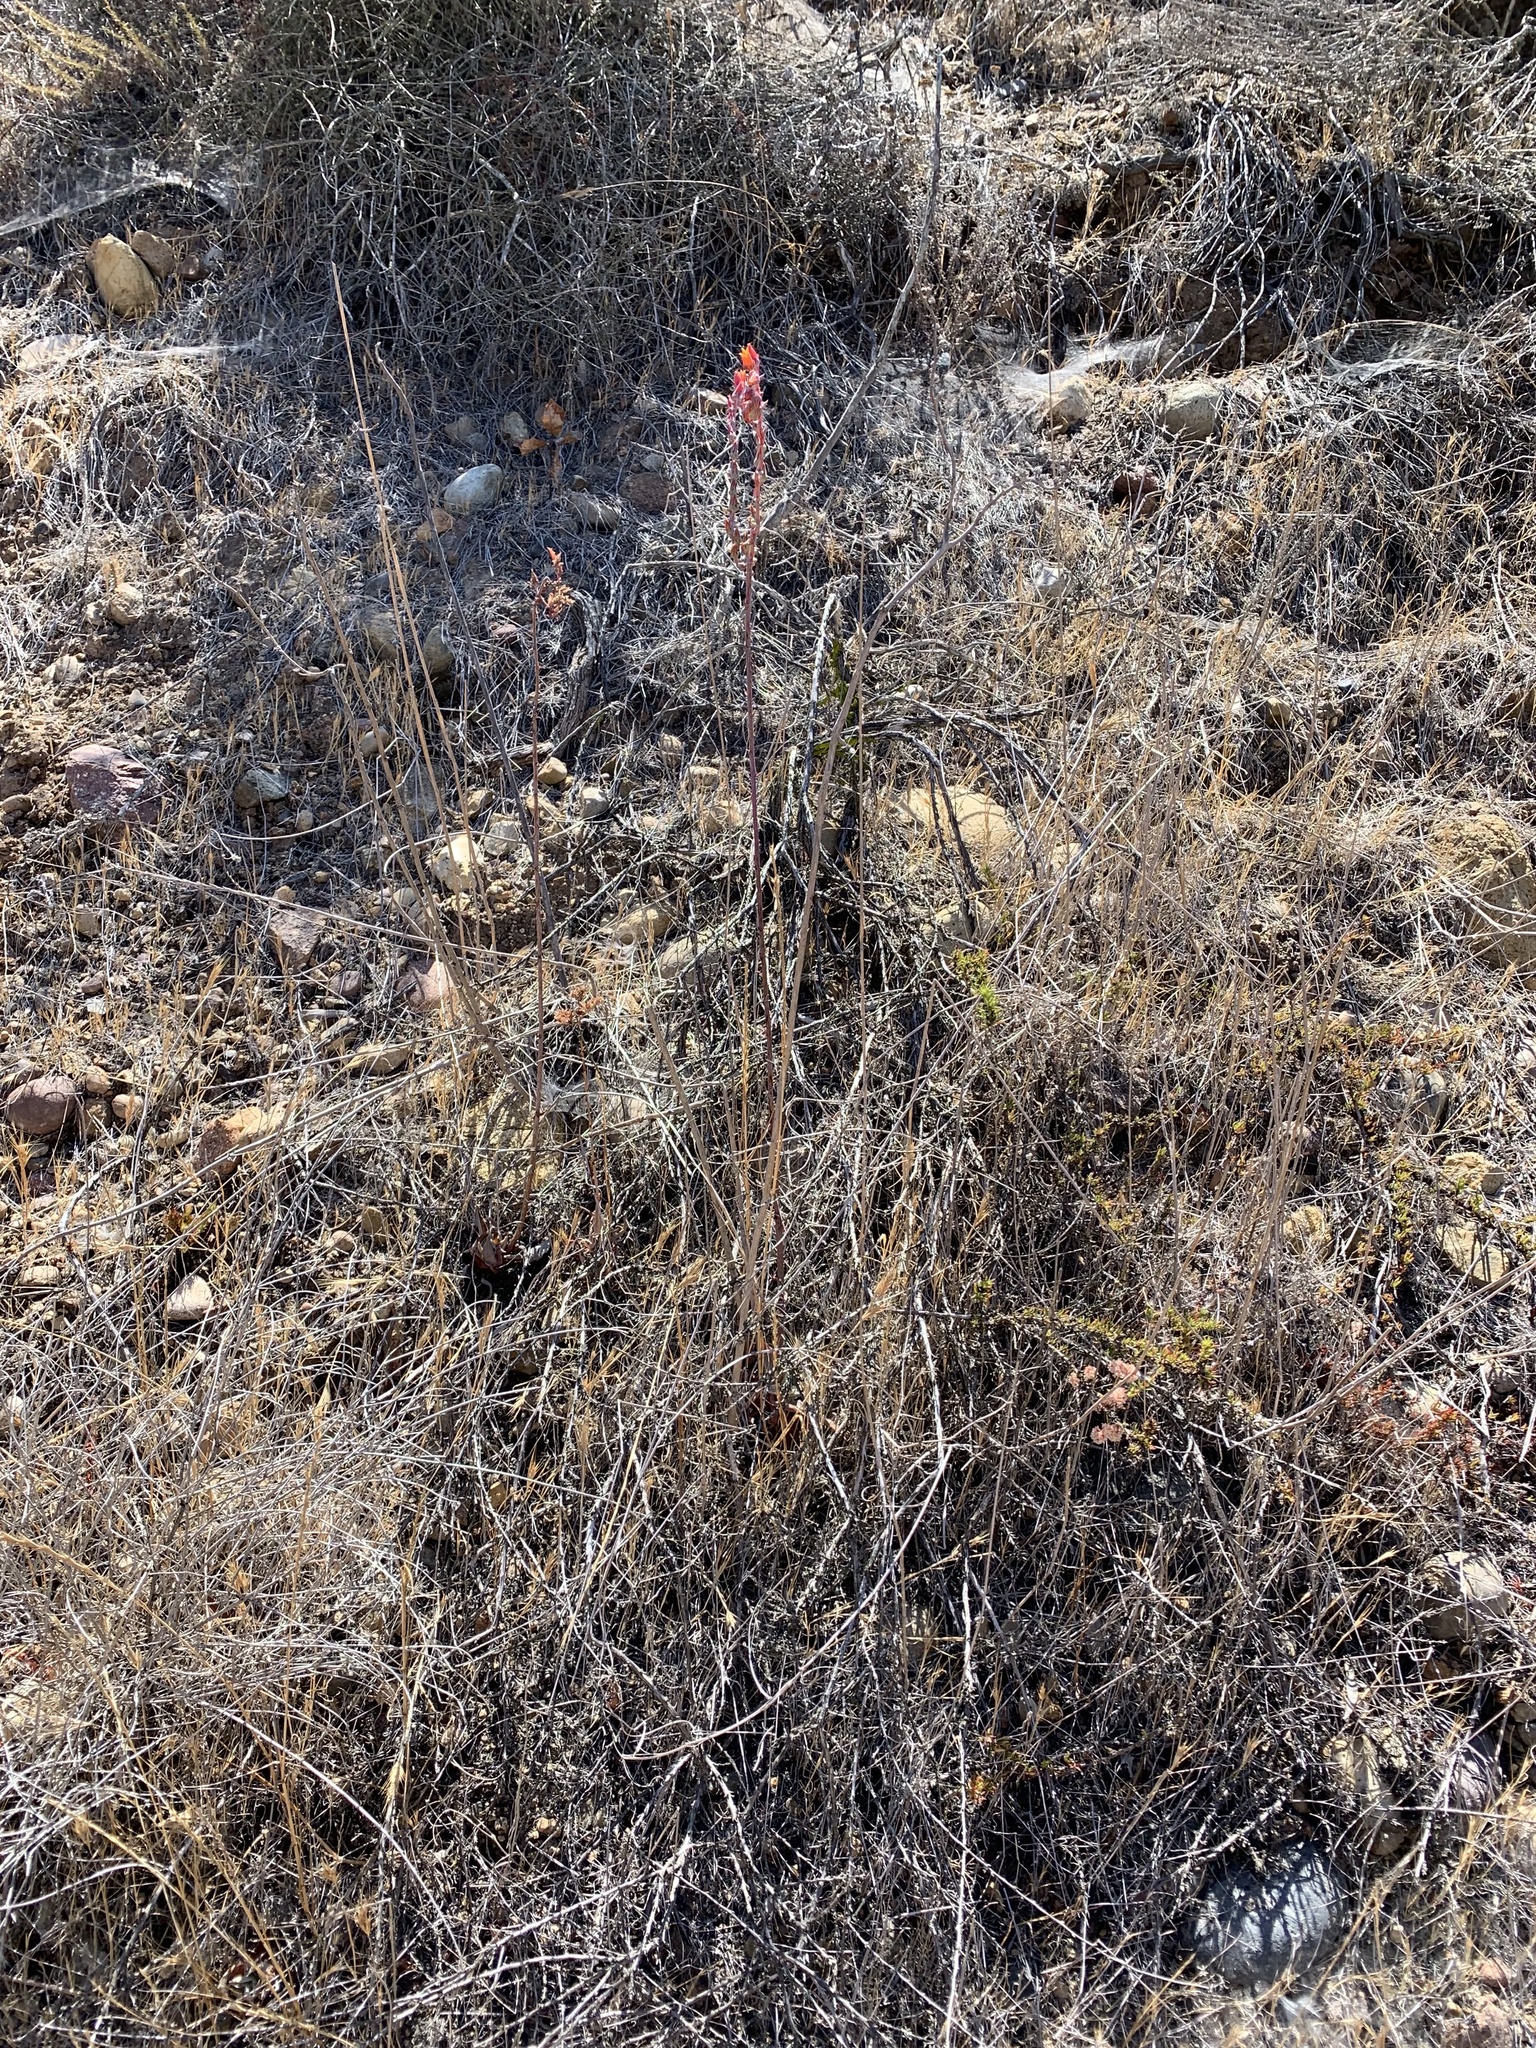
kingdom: Plantae
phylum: Tracheophyta
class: Magnoliopsida
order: Saxifragales
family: Crassulaceae
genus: Dudleya
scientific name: Dudleya lanceolata
